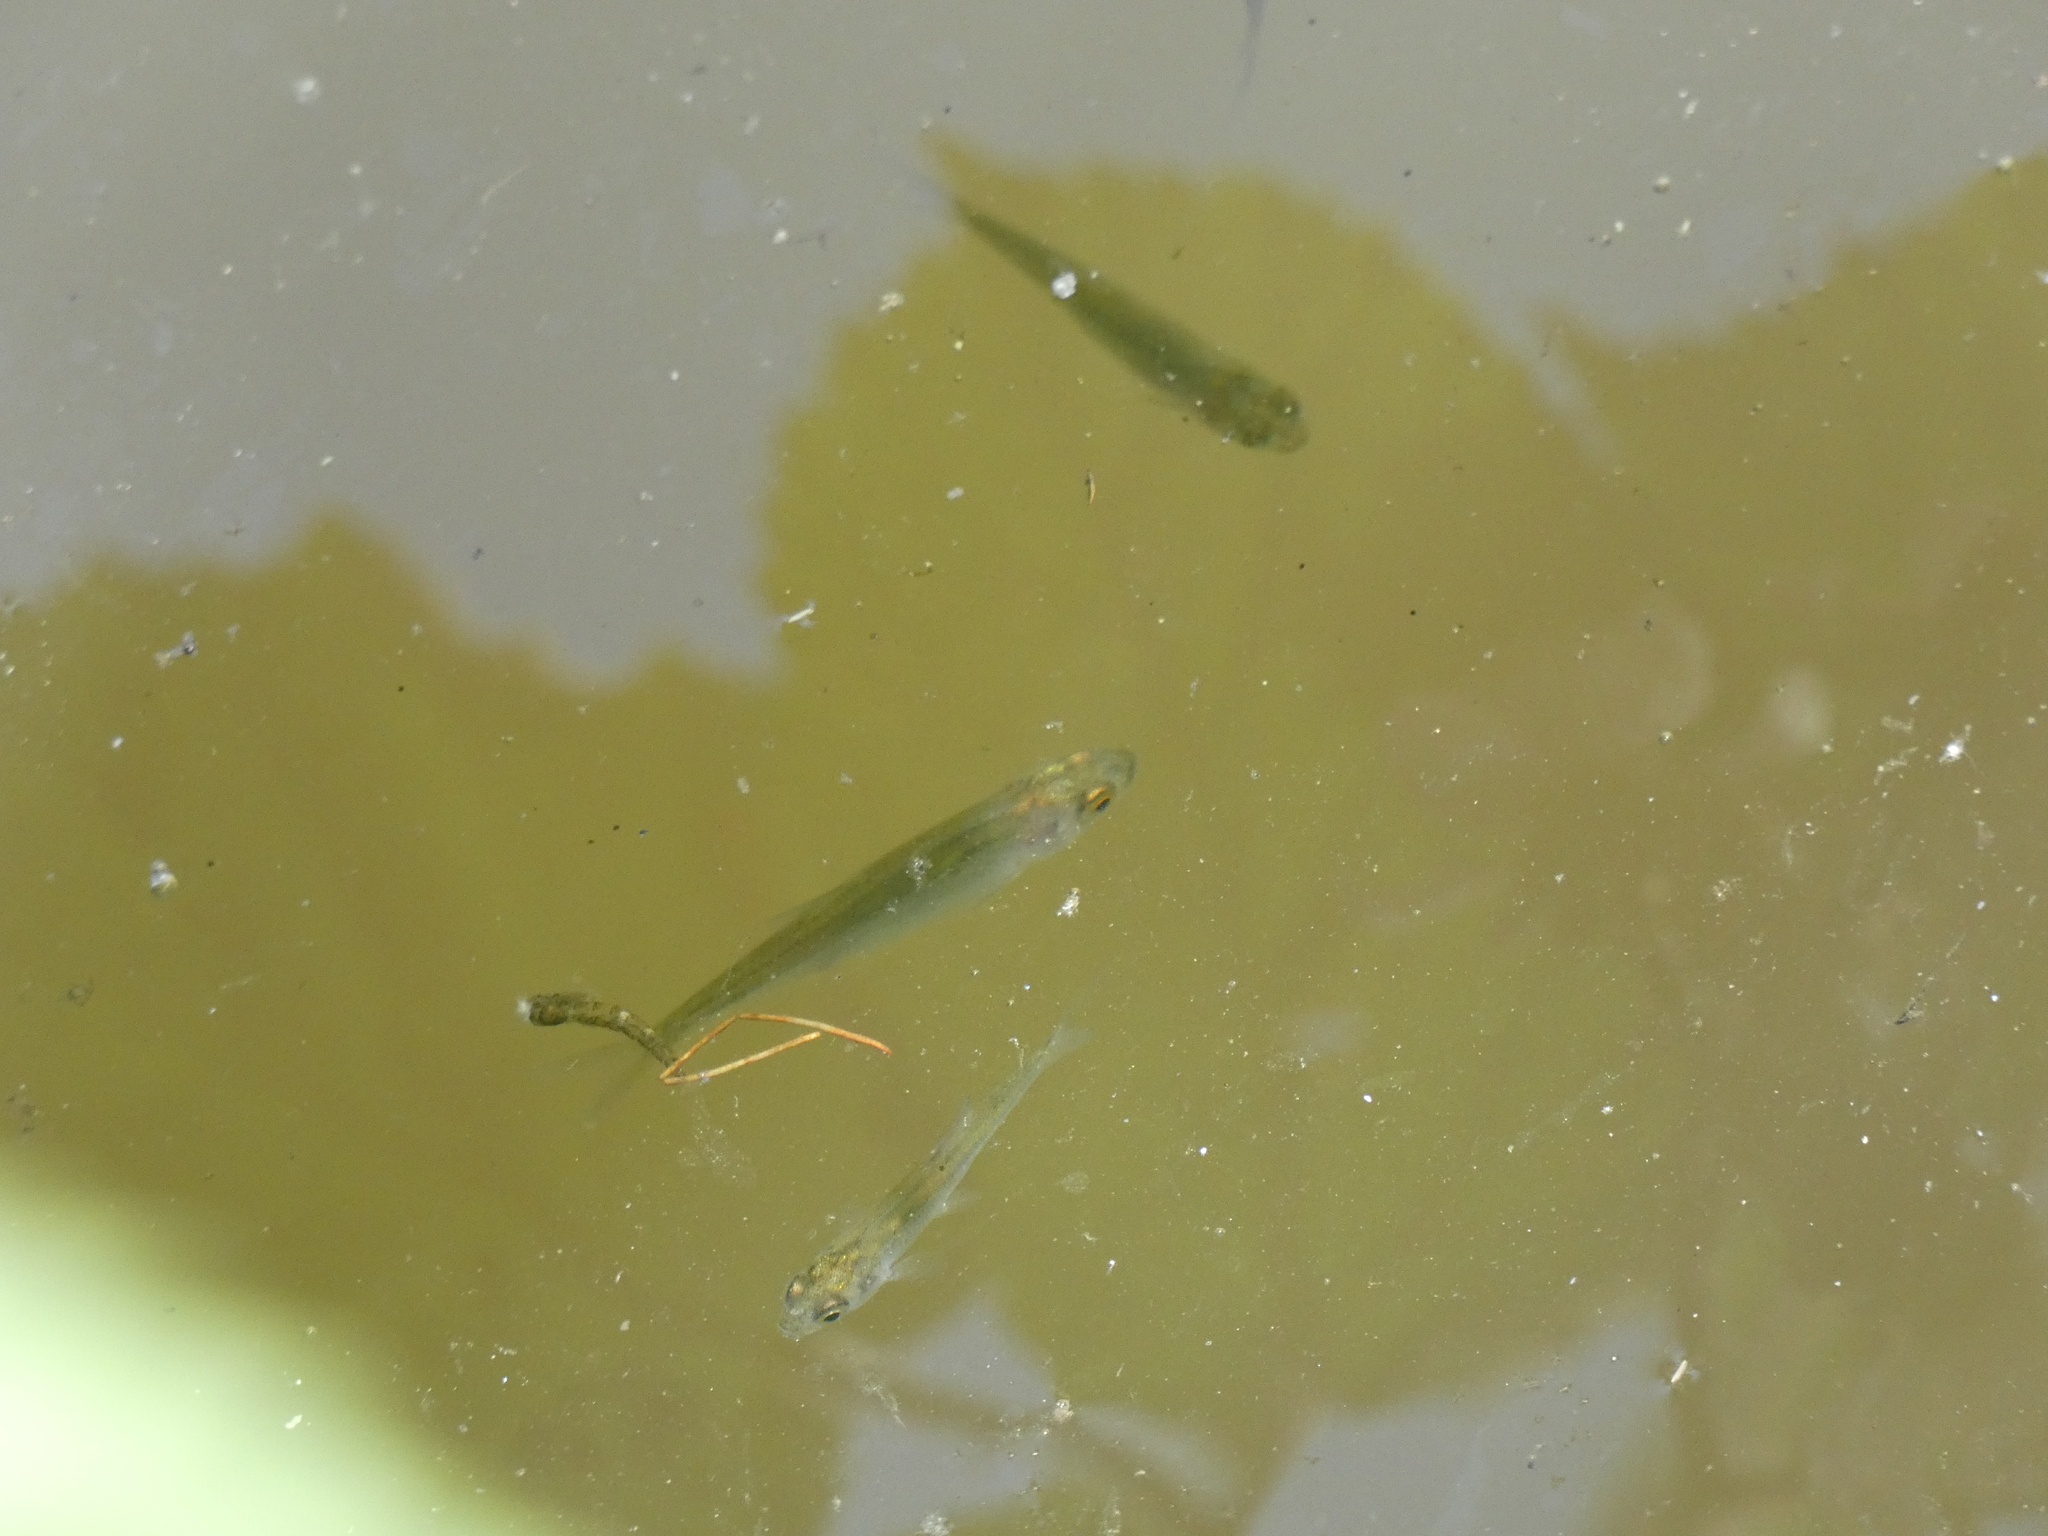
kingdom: Animalia
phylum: Chordata
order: Cypriniformes
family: Cyprinidae
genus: Rutilus
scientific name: Rutilus rutilus
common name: Roach
